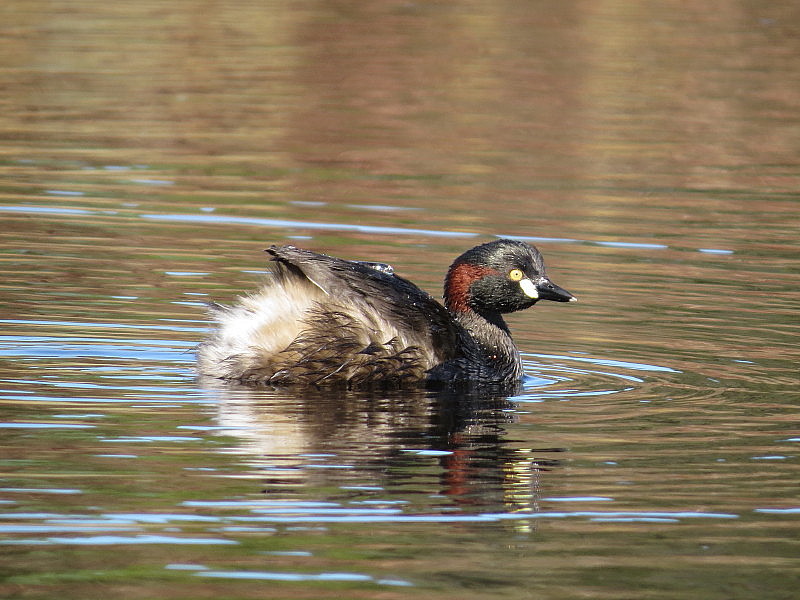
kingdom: Animalia
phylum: Chordata
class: Aves
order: Podicipediformes
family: Podicipedidae
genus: Tachybaptus
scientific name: Tachybaptus novaehollandiae
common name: Australasian grebe
